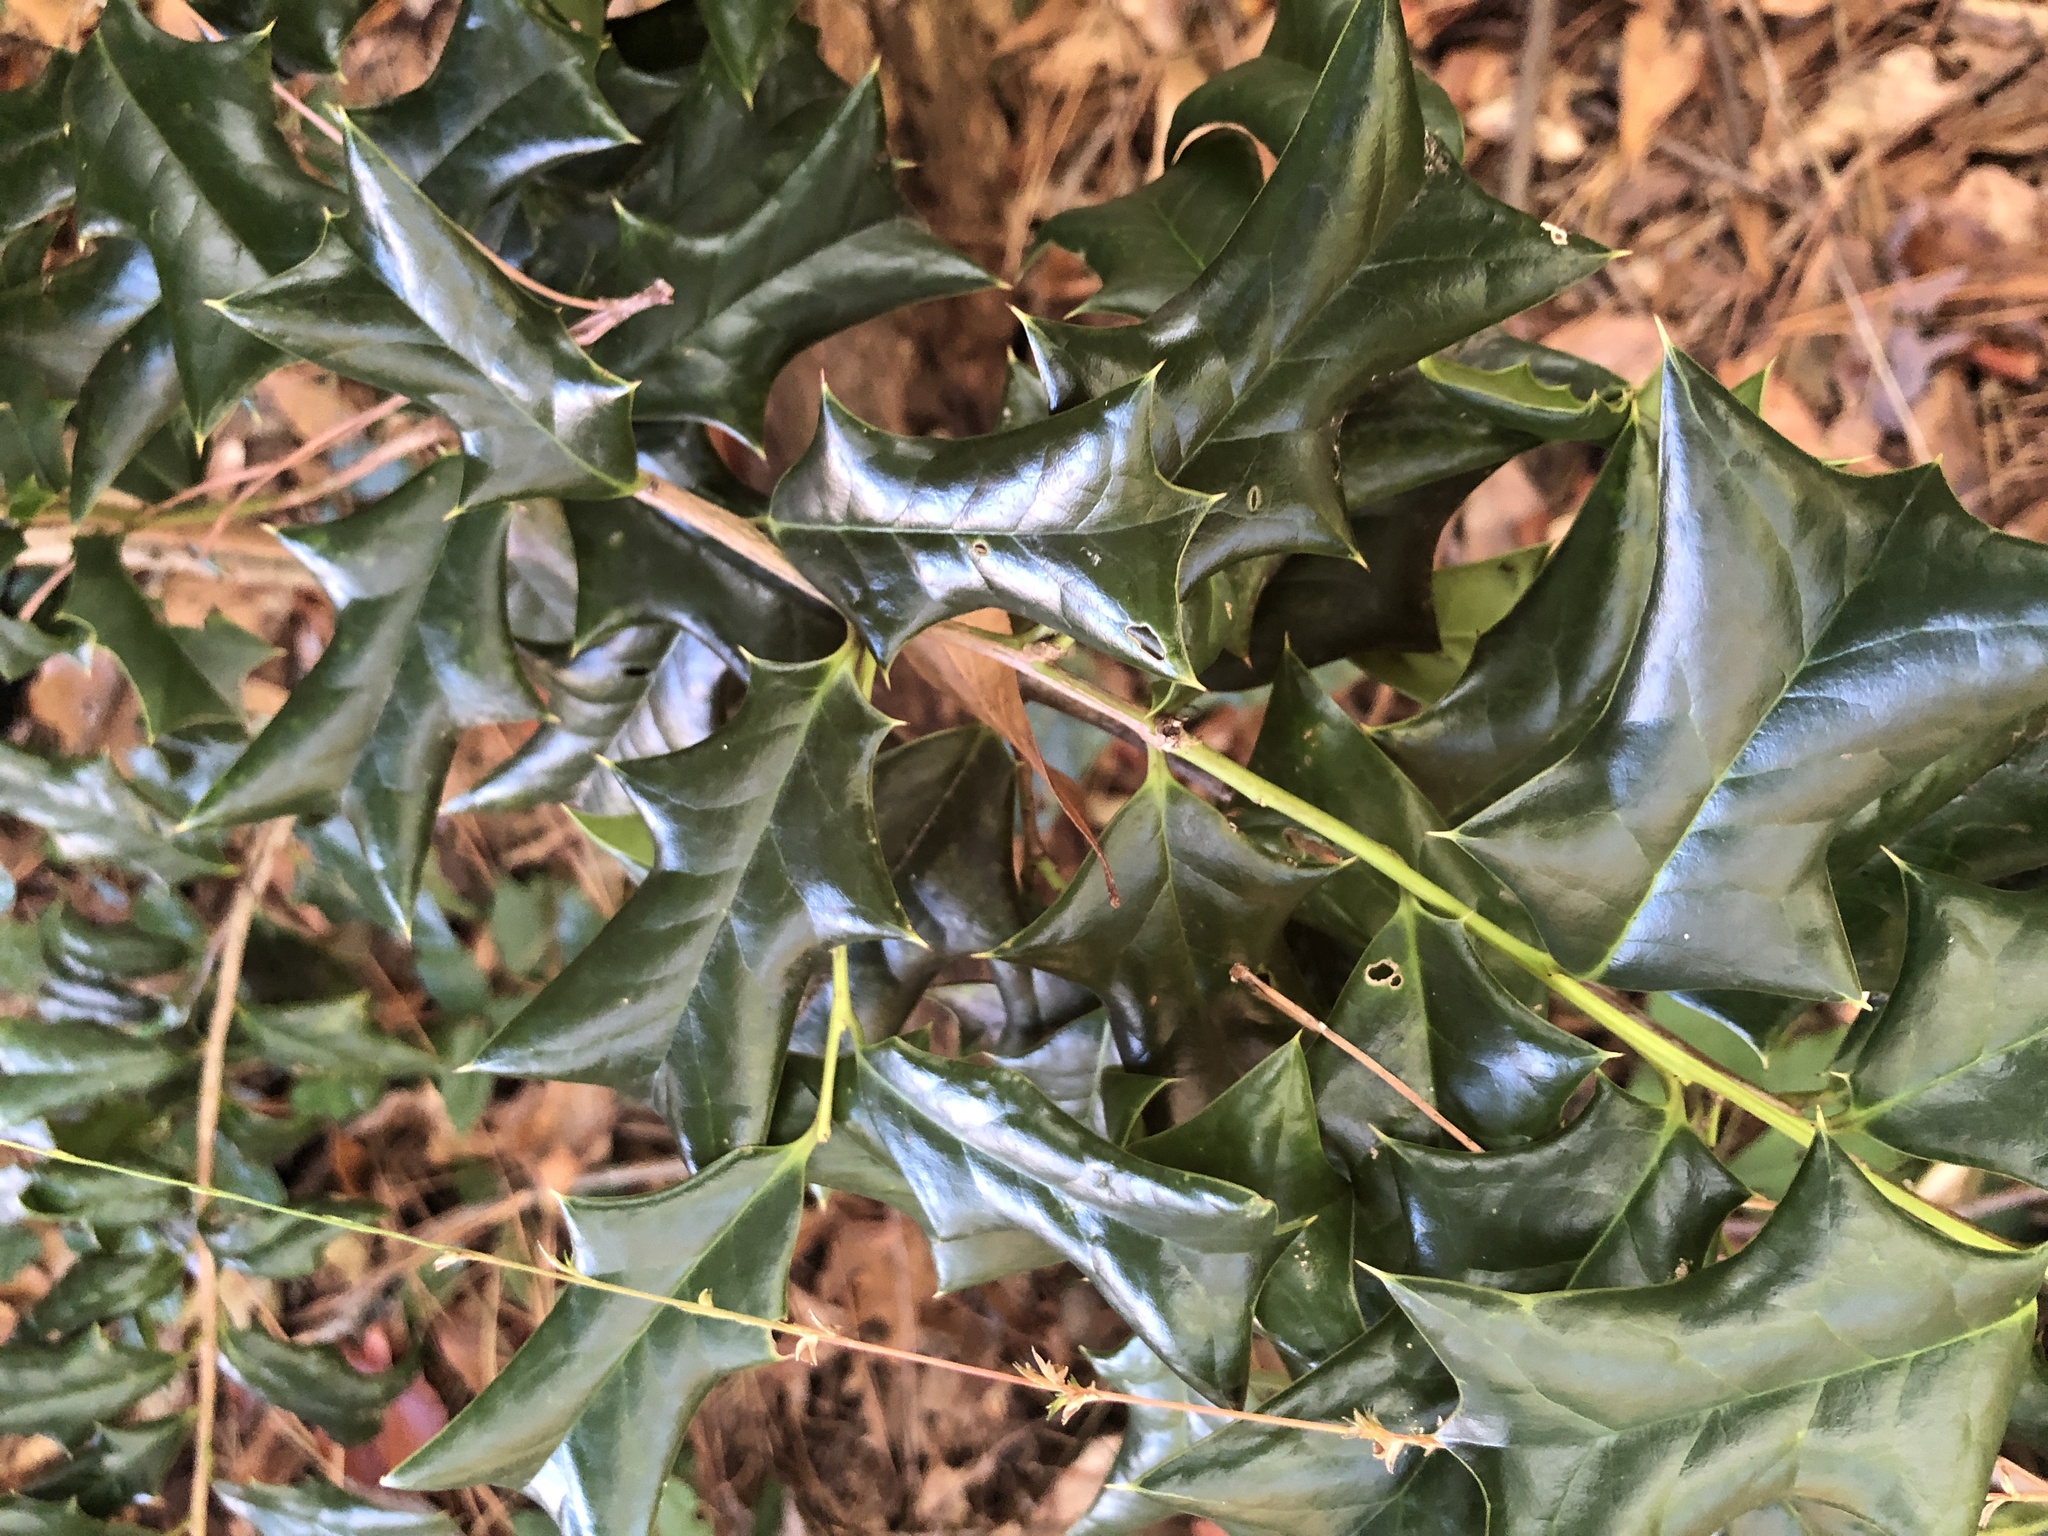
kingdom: Plantae
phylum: Tracheophyta
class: Magnoliopsida
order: Aquifoliales
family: Aquifoliaceae
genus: Ilex
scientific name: Ilex cornuta
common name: Chinese holly
